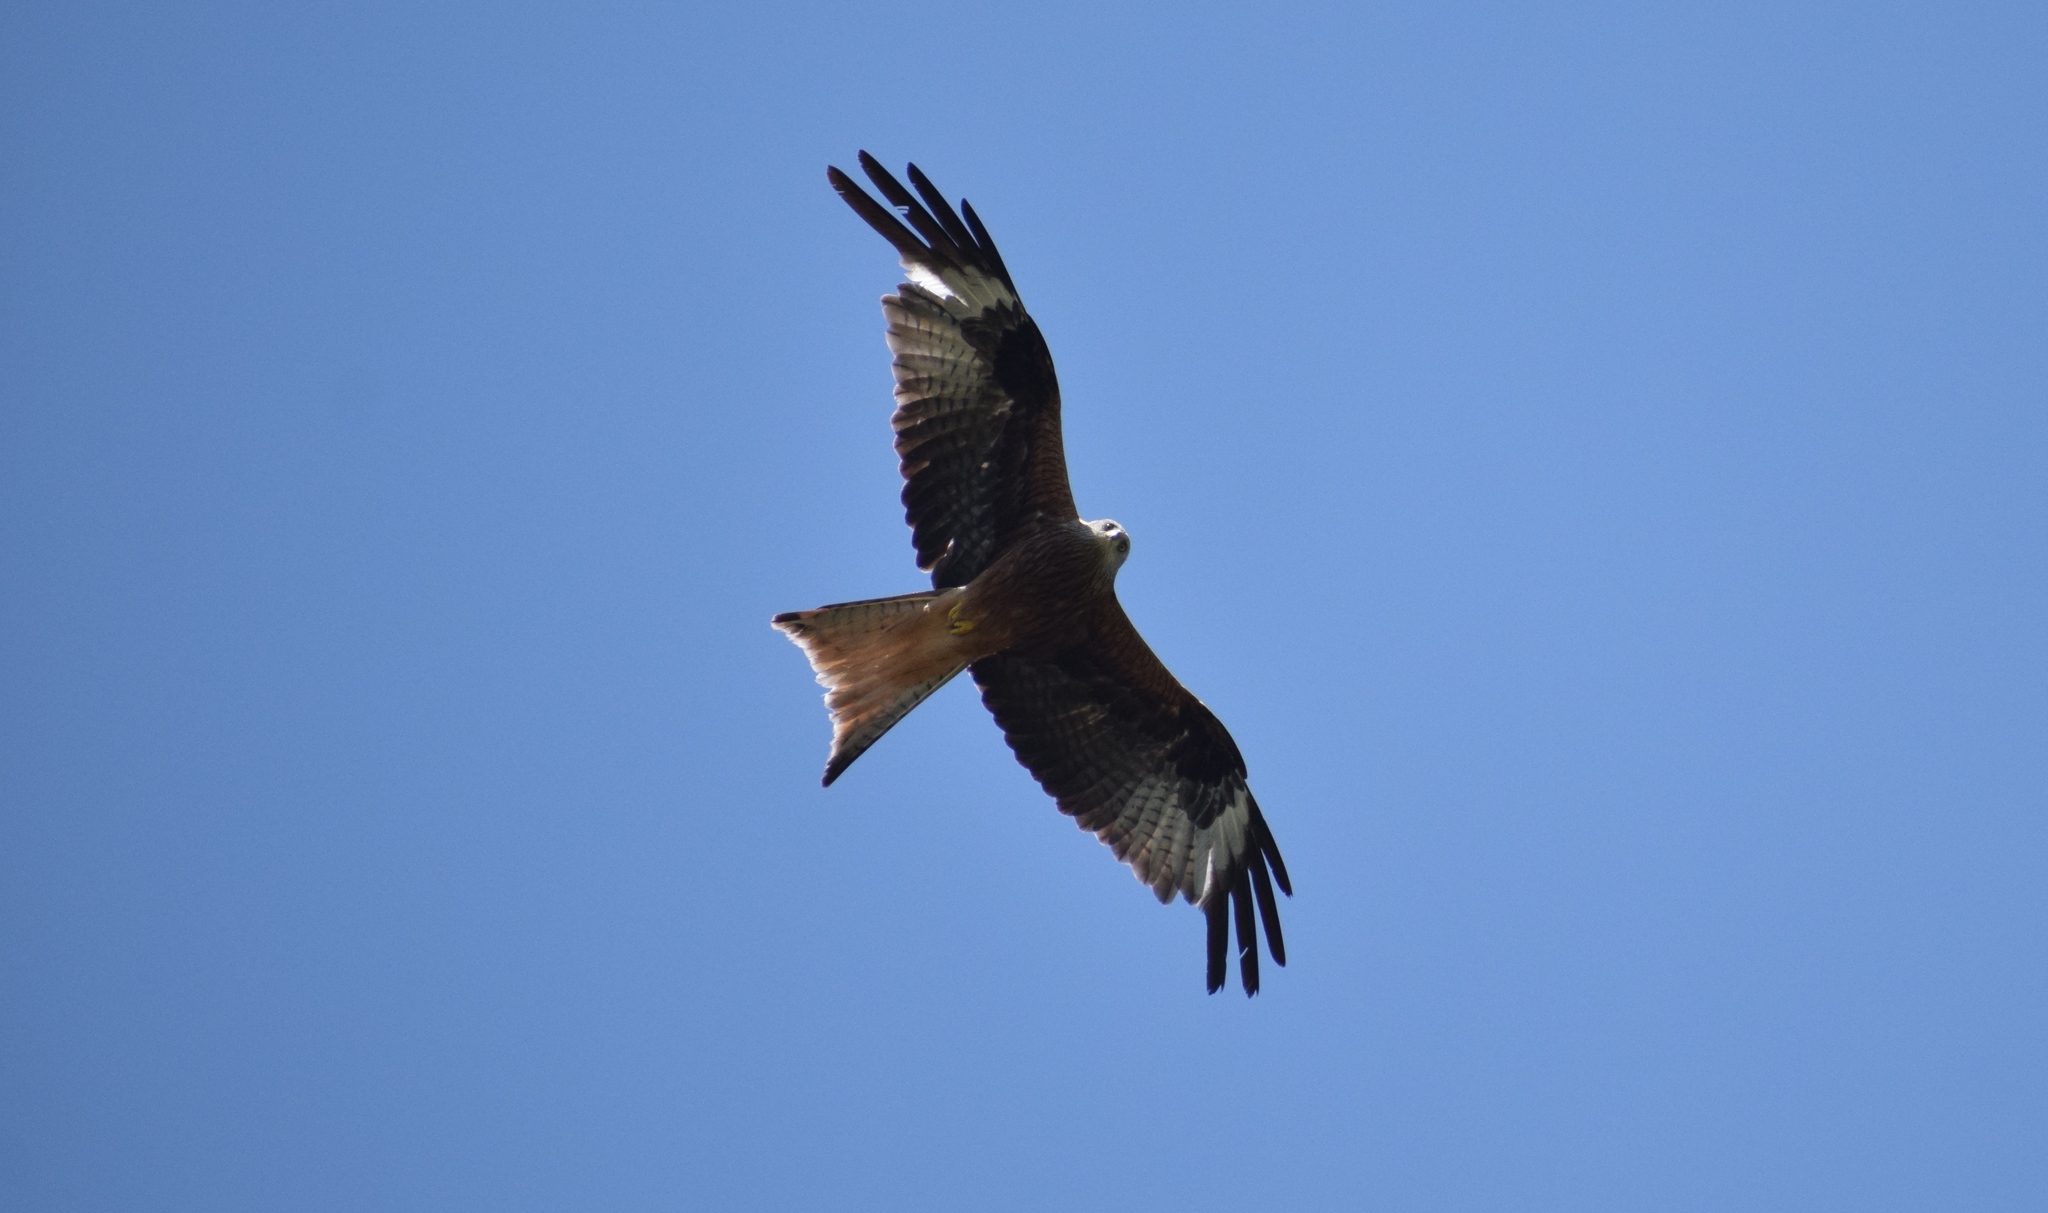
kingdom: Animalia
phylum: Chordata
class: Aves
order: Accipitriformes
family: Accipitridae
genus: Milvus
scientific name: Milvus milvus
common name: Red kite
